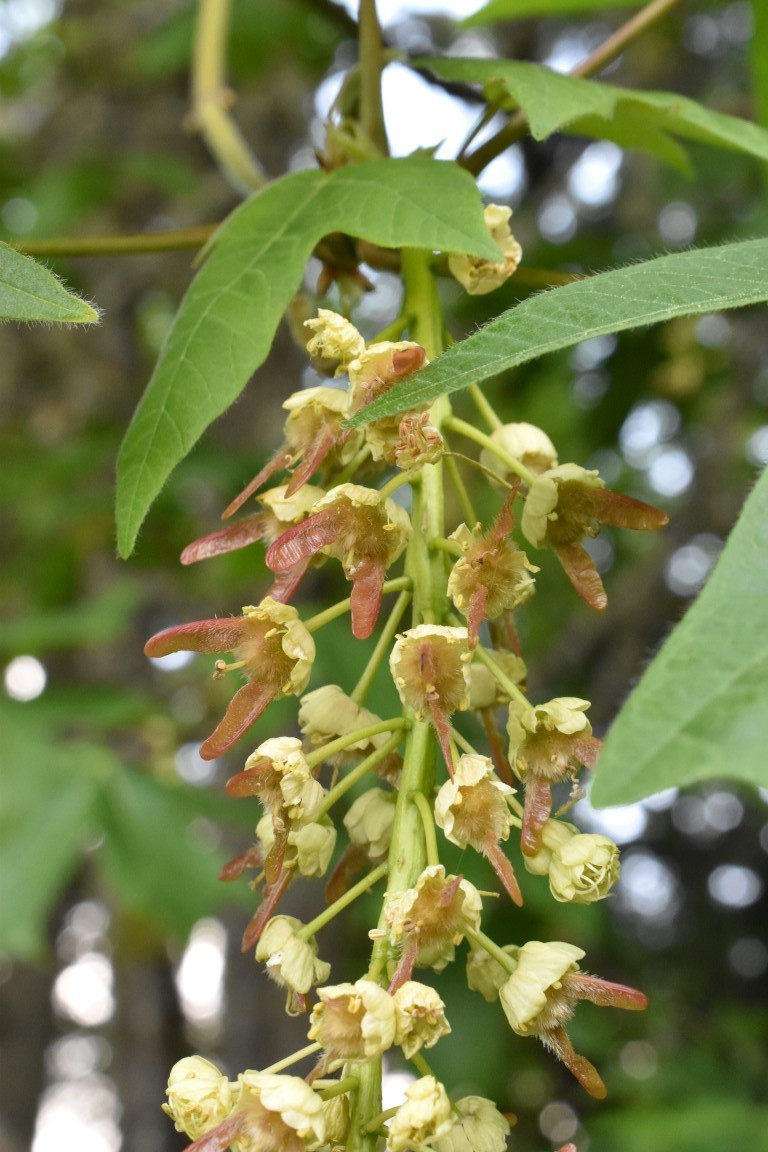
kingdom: Plantae
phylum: Tracheophyta
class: Magnoliopsida
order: Sapindales
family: Sapindaceae
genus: Acer
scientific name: Acer macrophyllum
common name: Oregon maple
